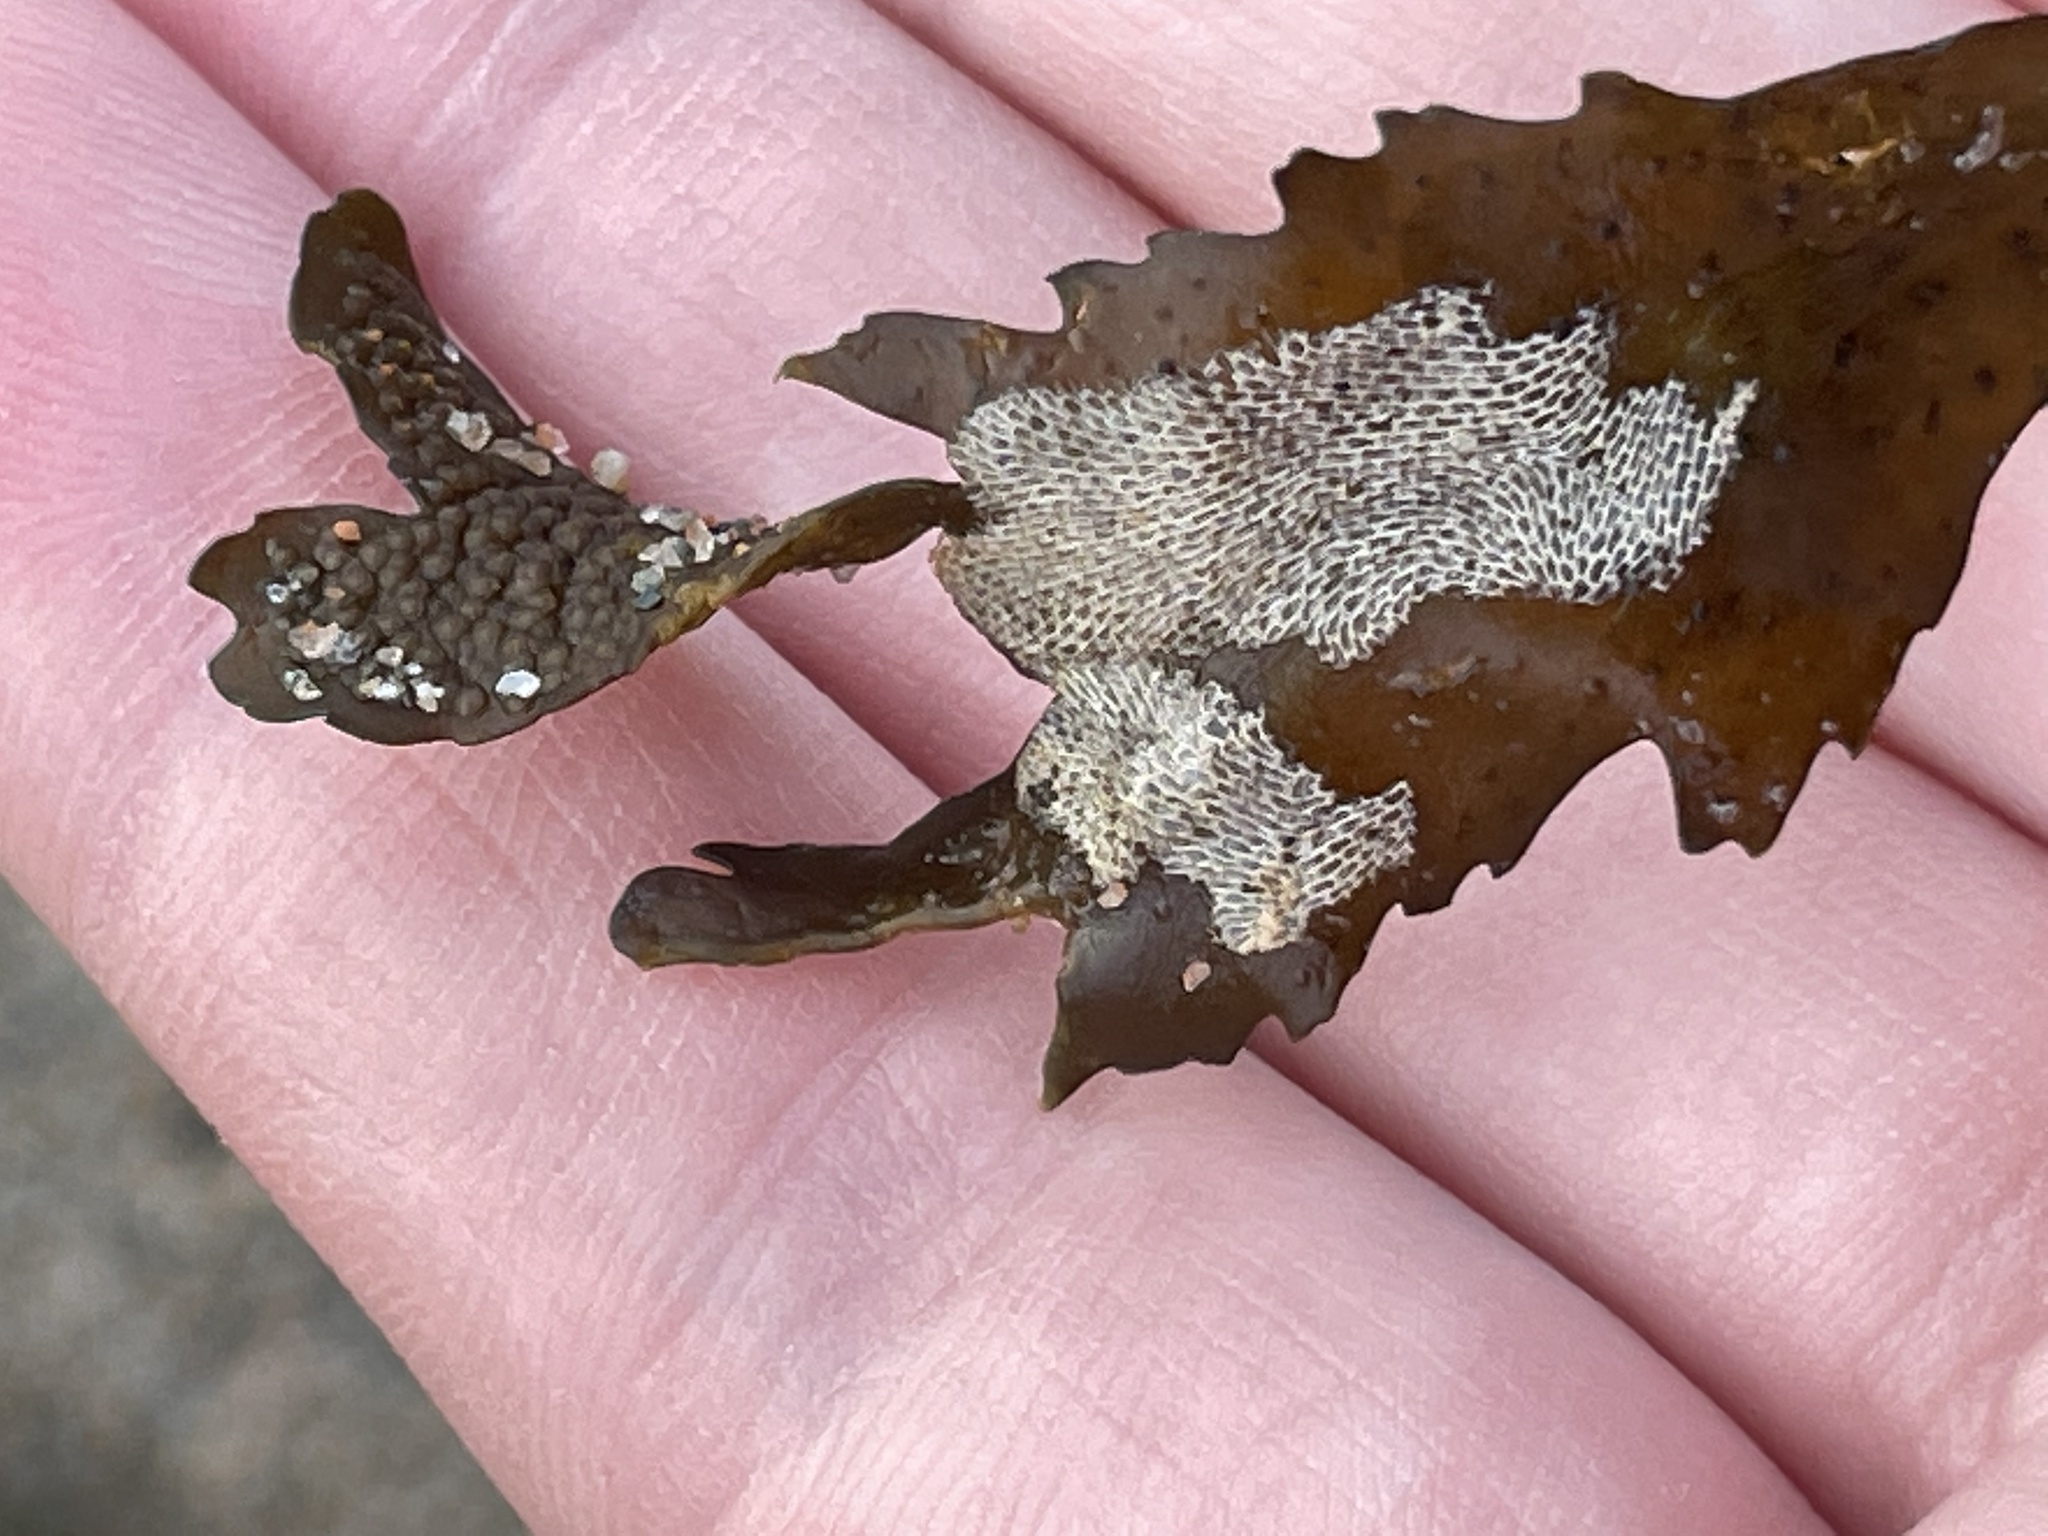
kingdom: Animalia
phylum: Bryozoa
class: Gymnolaemata
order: Cheilostomatida
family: Membraniporidae
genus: Membranipora
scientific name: Membranipora membranacea
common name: Sea mat
